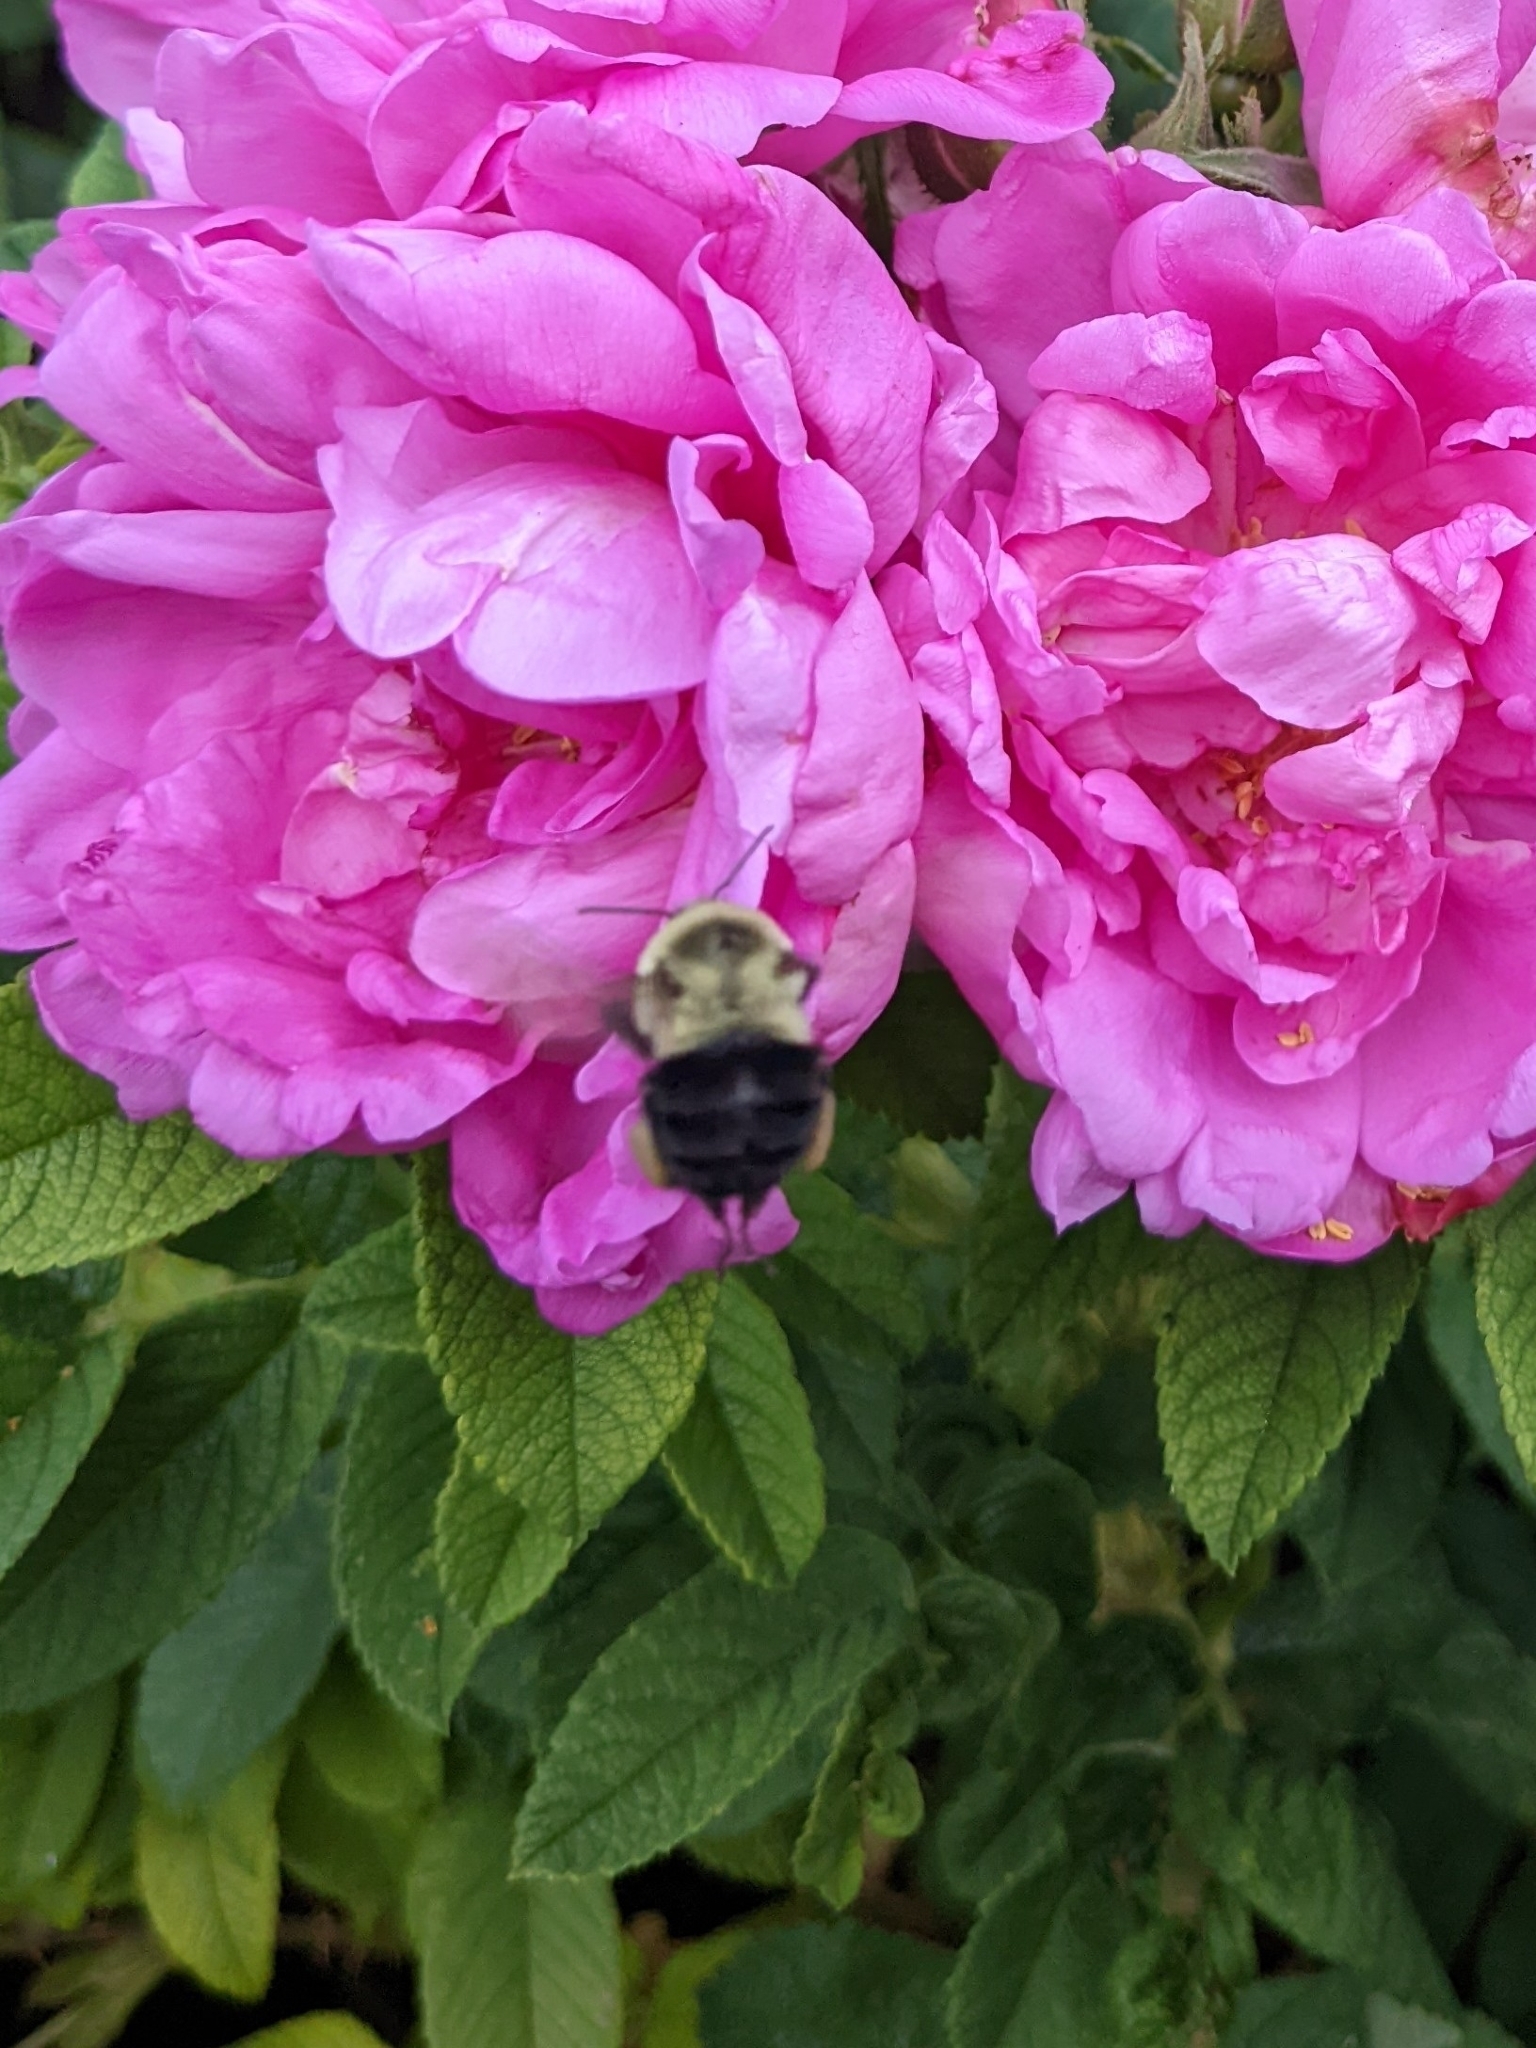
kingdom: Animalia
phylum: Arthropoda
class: Insecta
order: Hymenoptera
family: Apidae
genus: Bombus
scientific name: Bombus impatiens
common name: Common eastern bumble bee
